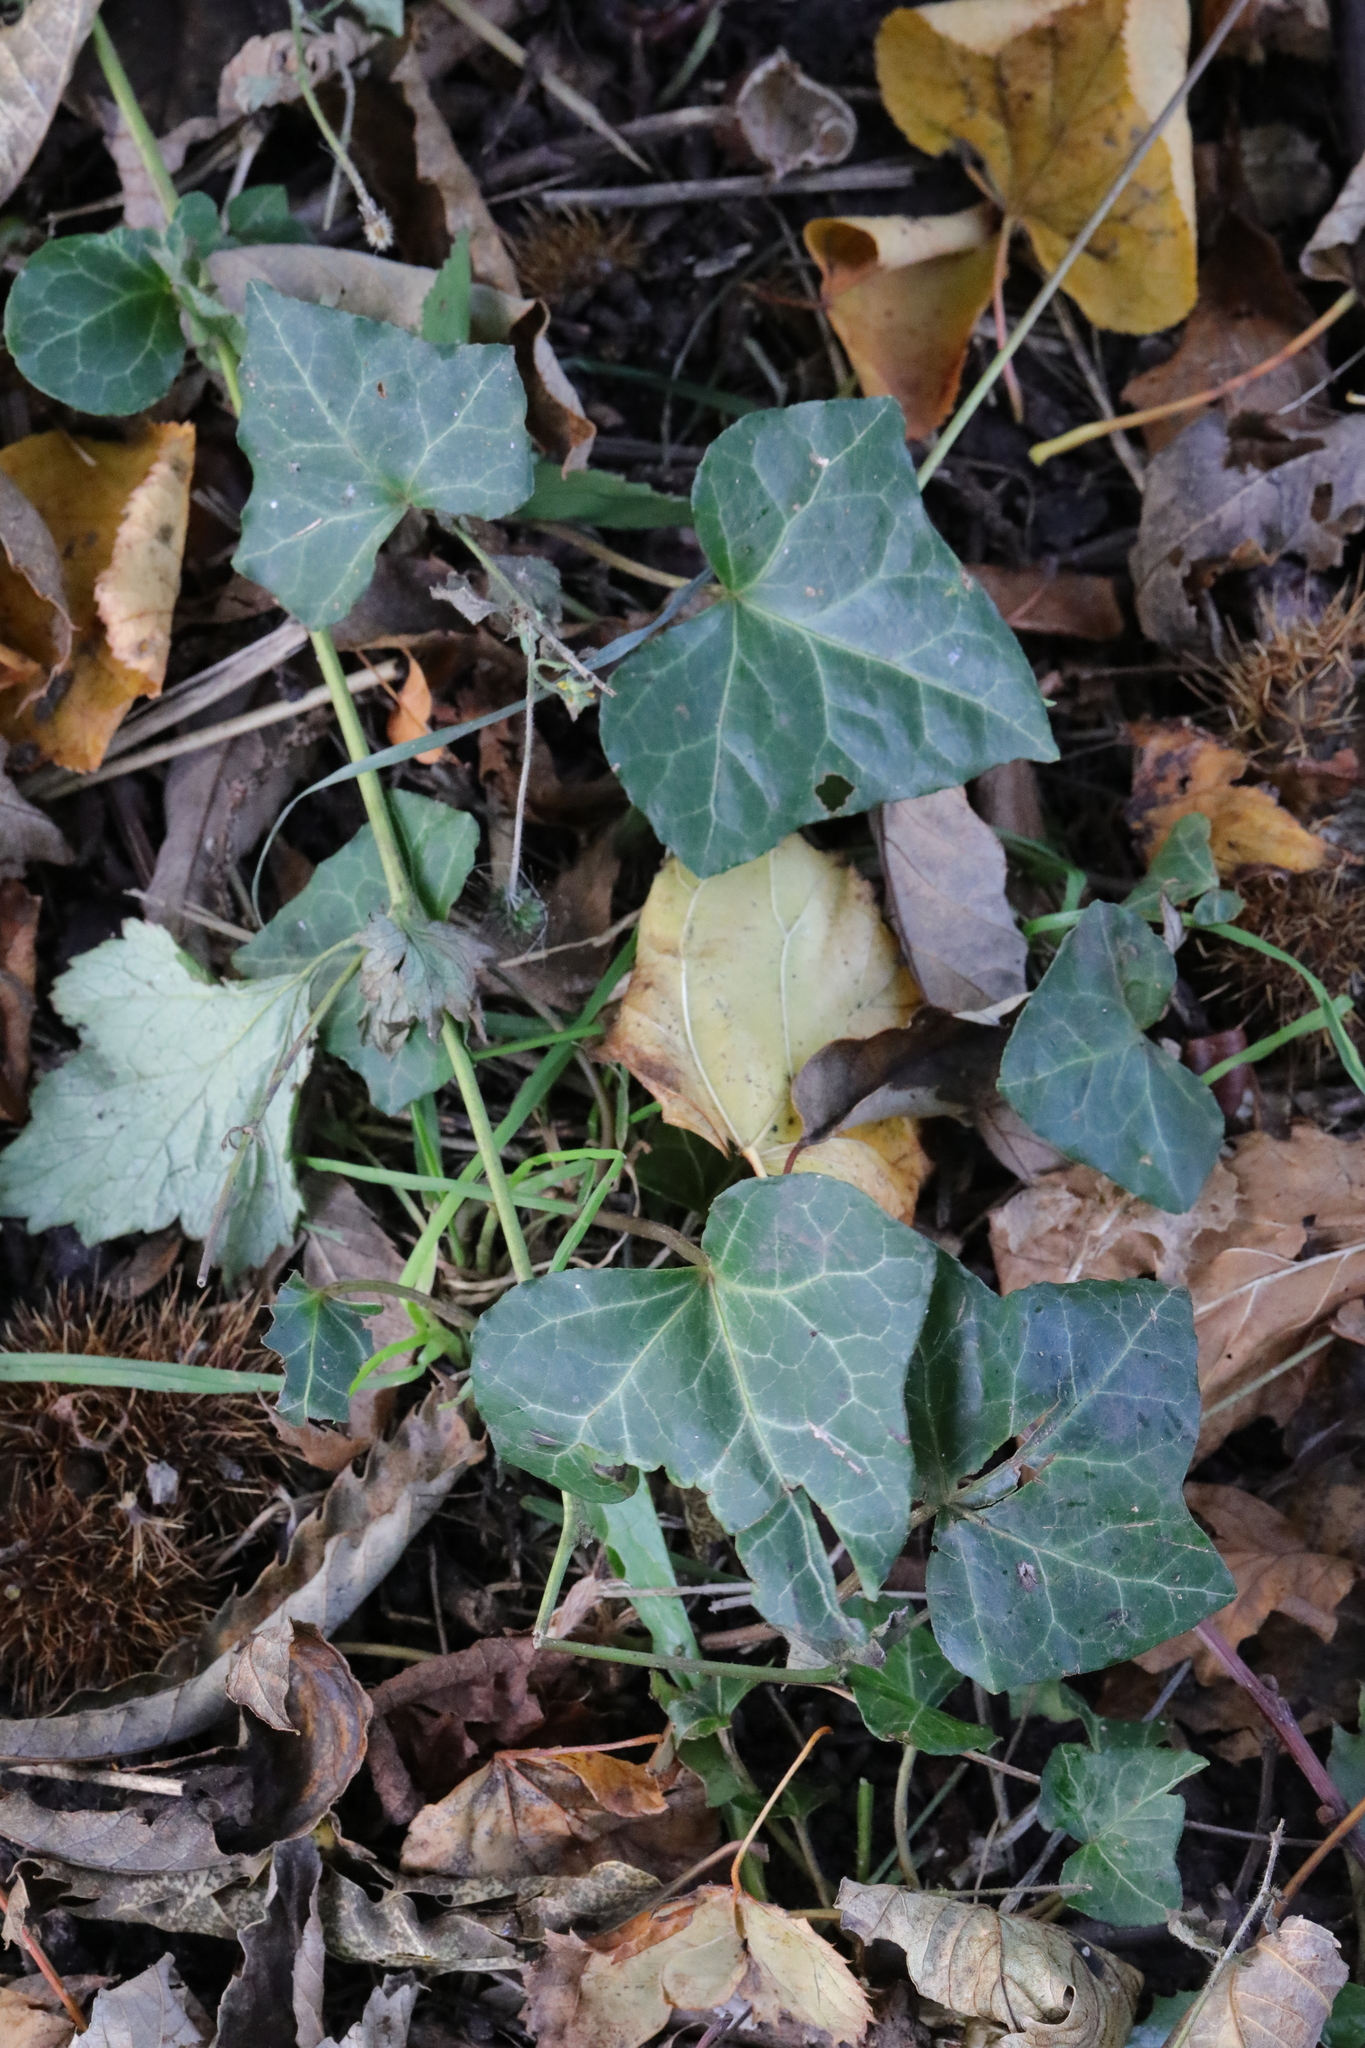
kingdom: Plantae
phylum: Tracheophyta
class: Magnoliopsida
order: Apiales
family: Araliaceae
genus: Hedera
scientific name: Hedera helix
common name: Ivy
